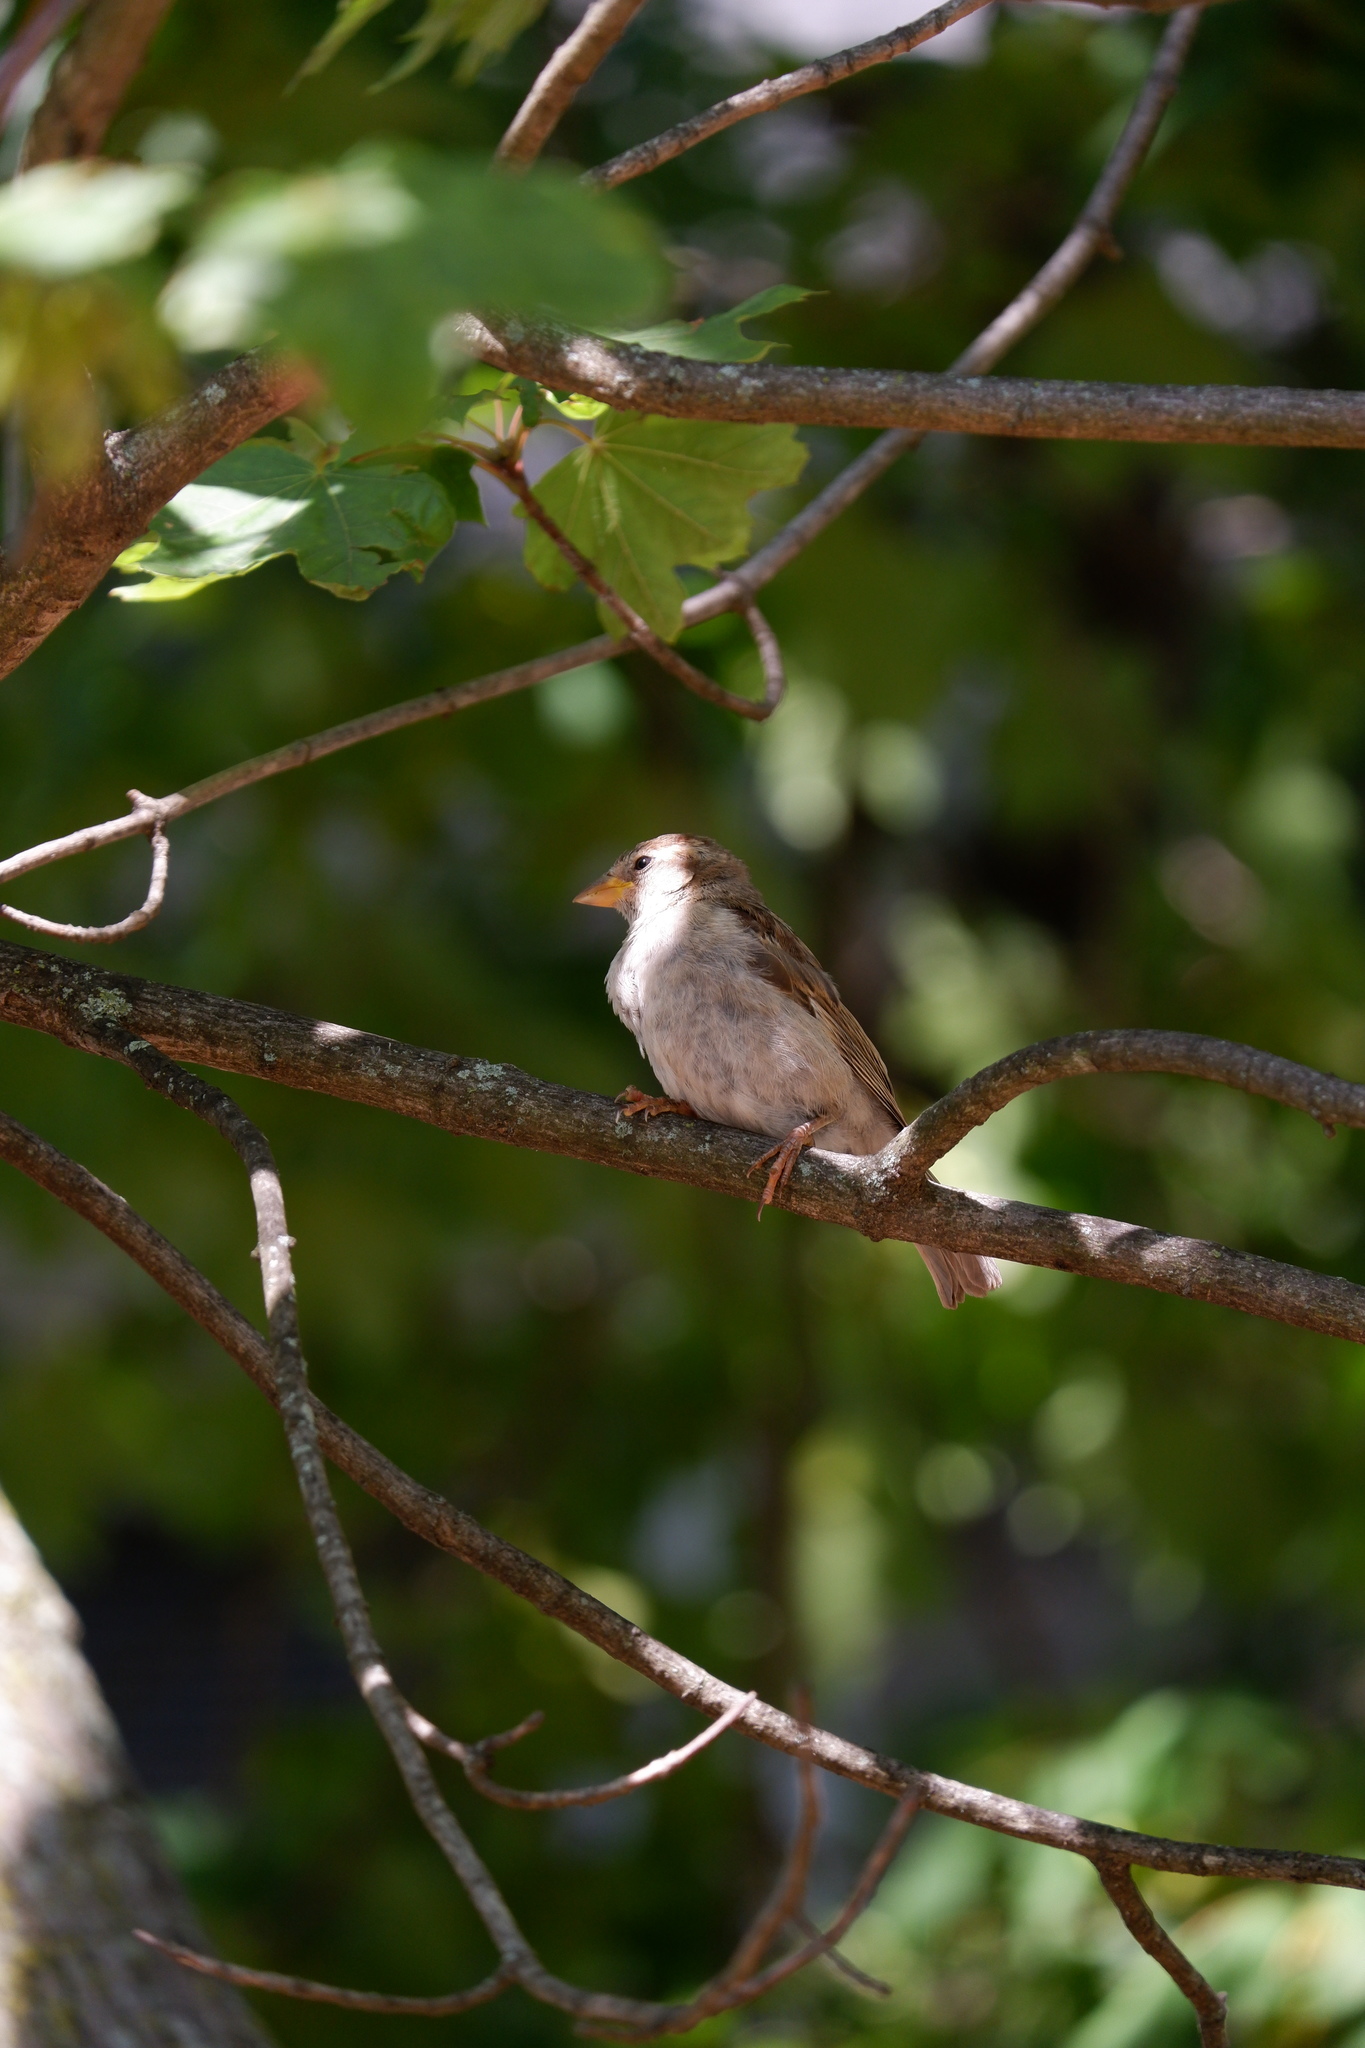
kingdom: Animalia
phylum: Chordata
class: Aves
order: Passeriformes
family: Passeridae
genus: Passer
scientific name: Passer domesticus
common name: House sparrow
